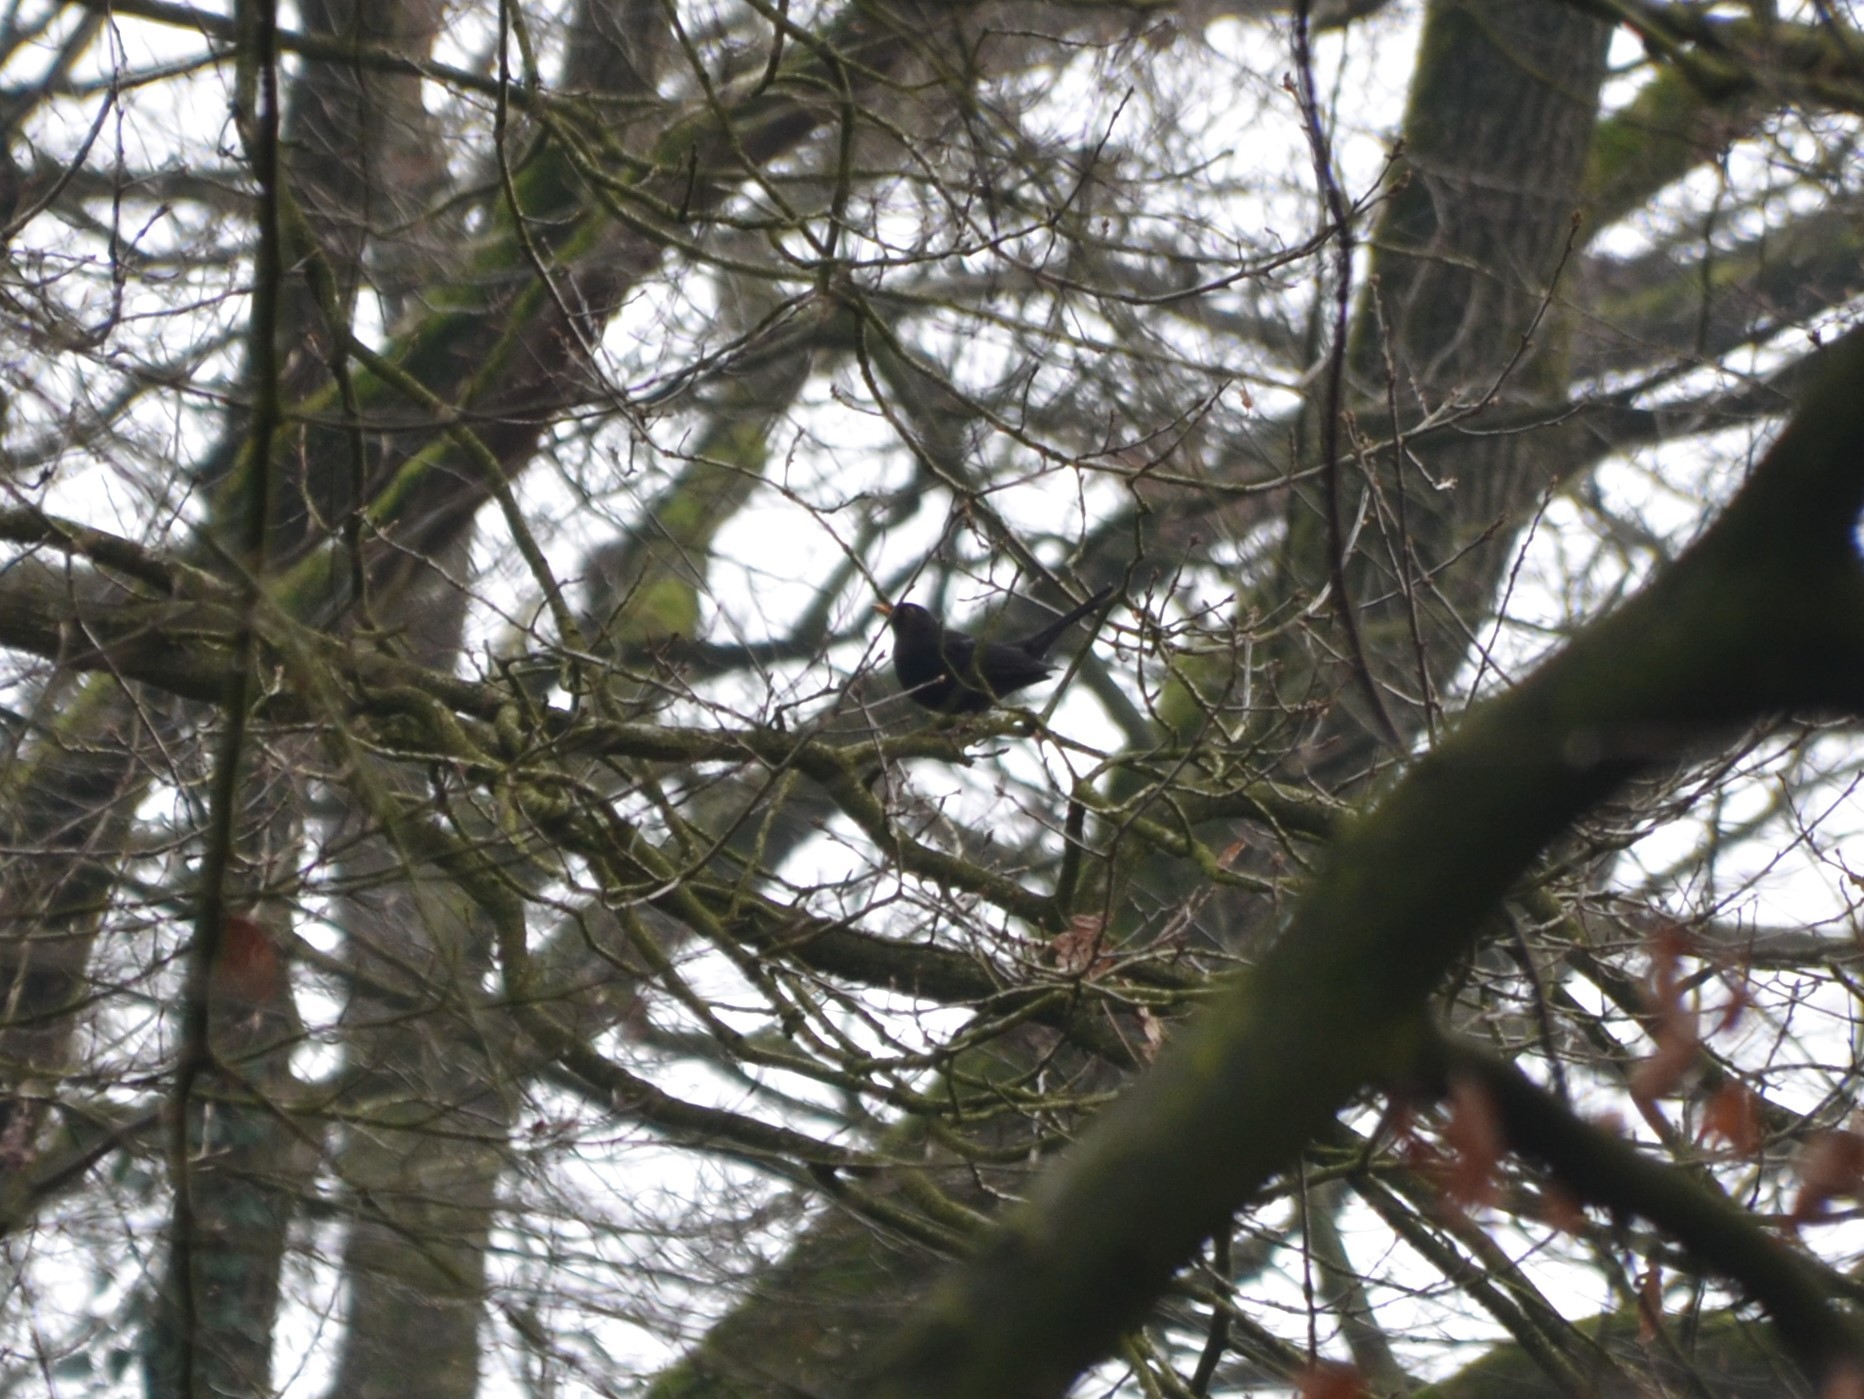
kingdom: Animalia
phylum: Chordata
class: Aves
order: Passeriformes
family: Turdidae
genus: Turdus
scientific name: Turdus merula
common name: Common blackbird
